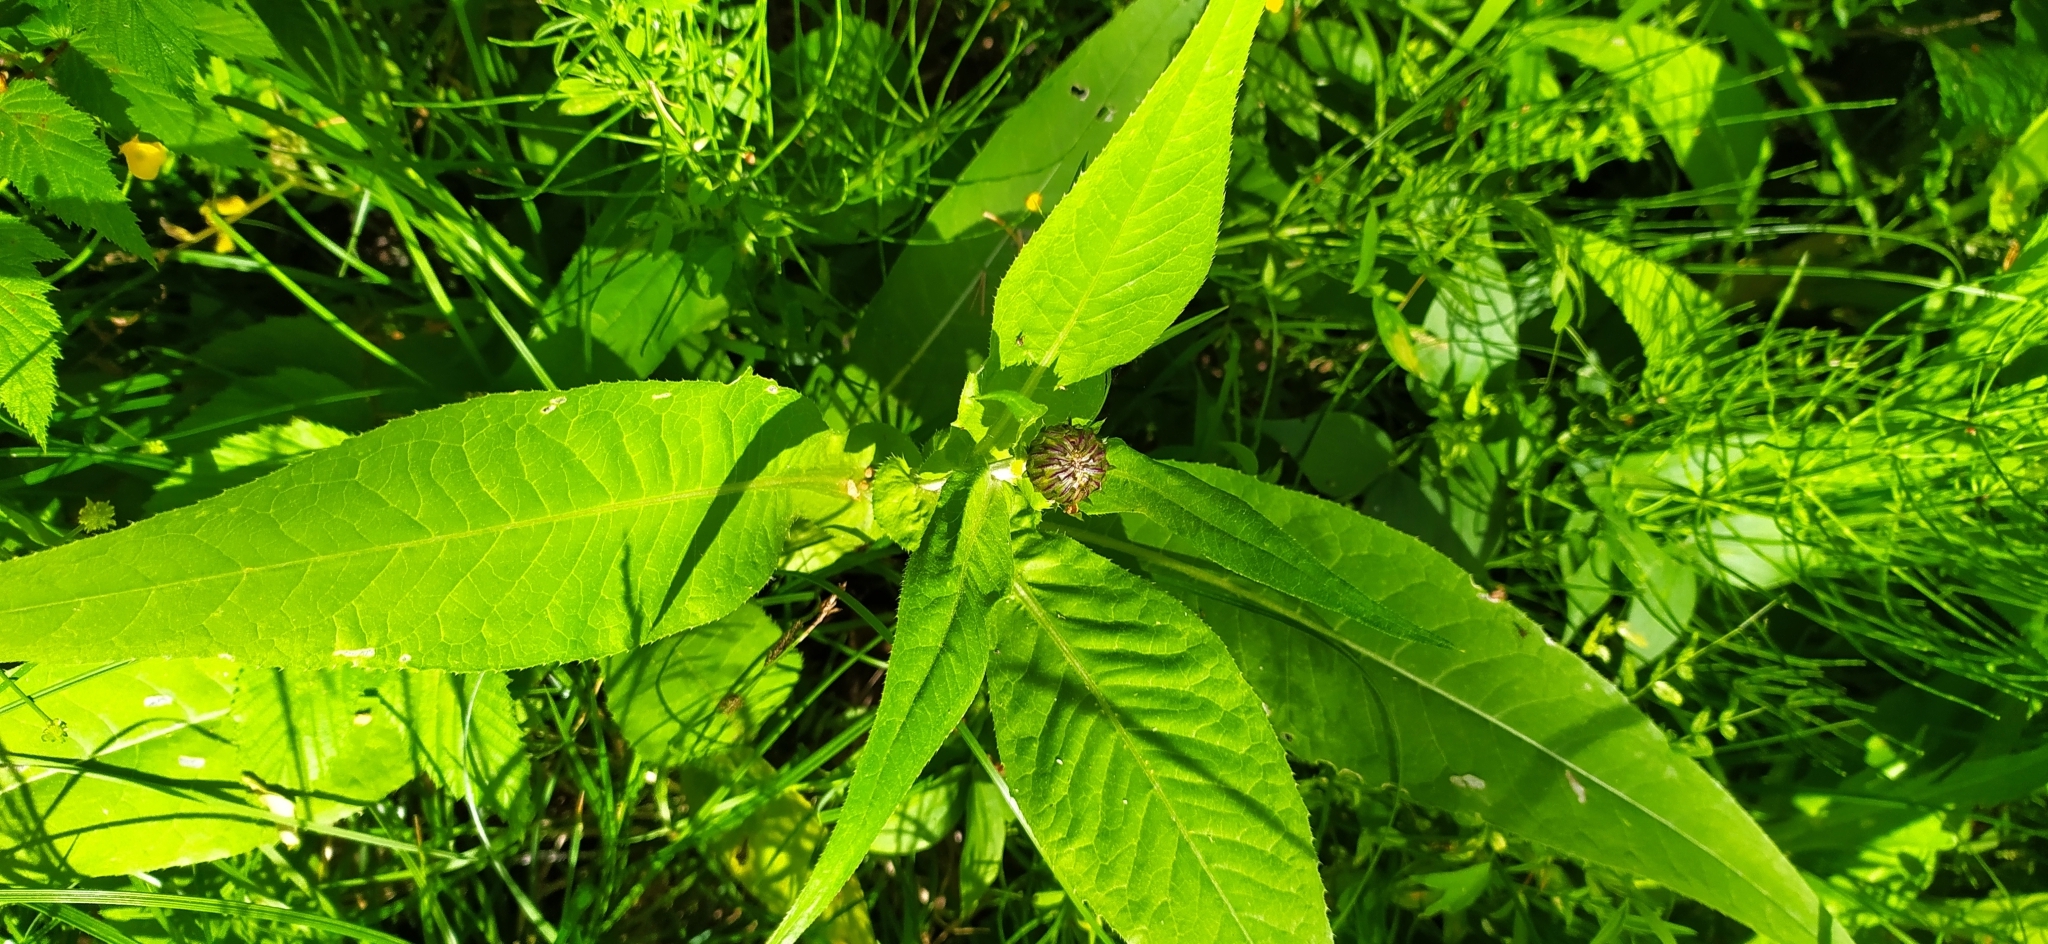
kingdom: Plantae
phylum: Tracheophyta
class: Magnoliopsida
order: Asterales
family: Asteraceae
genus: Cirsium
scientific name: Cirsium heterophyllum
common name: Melancholy thistle
